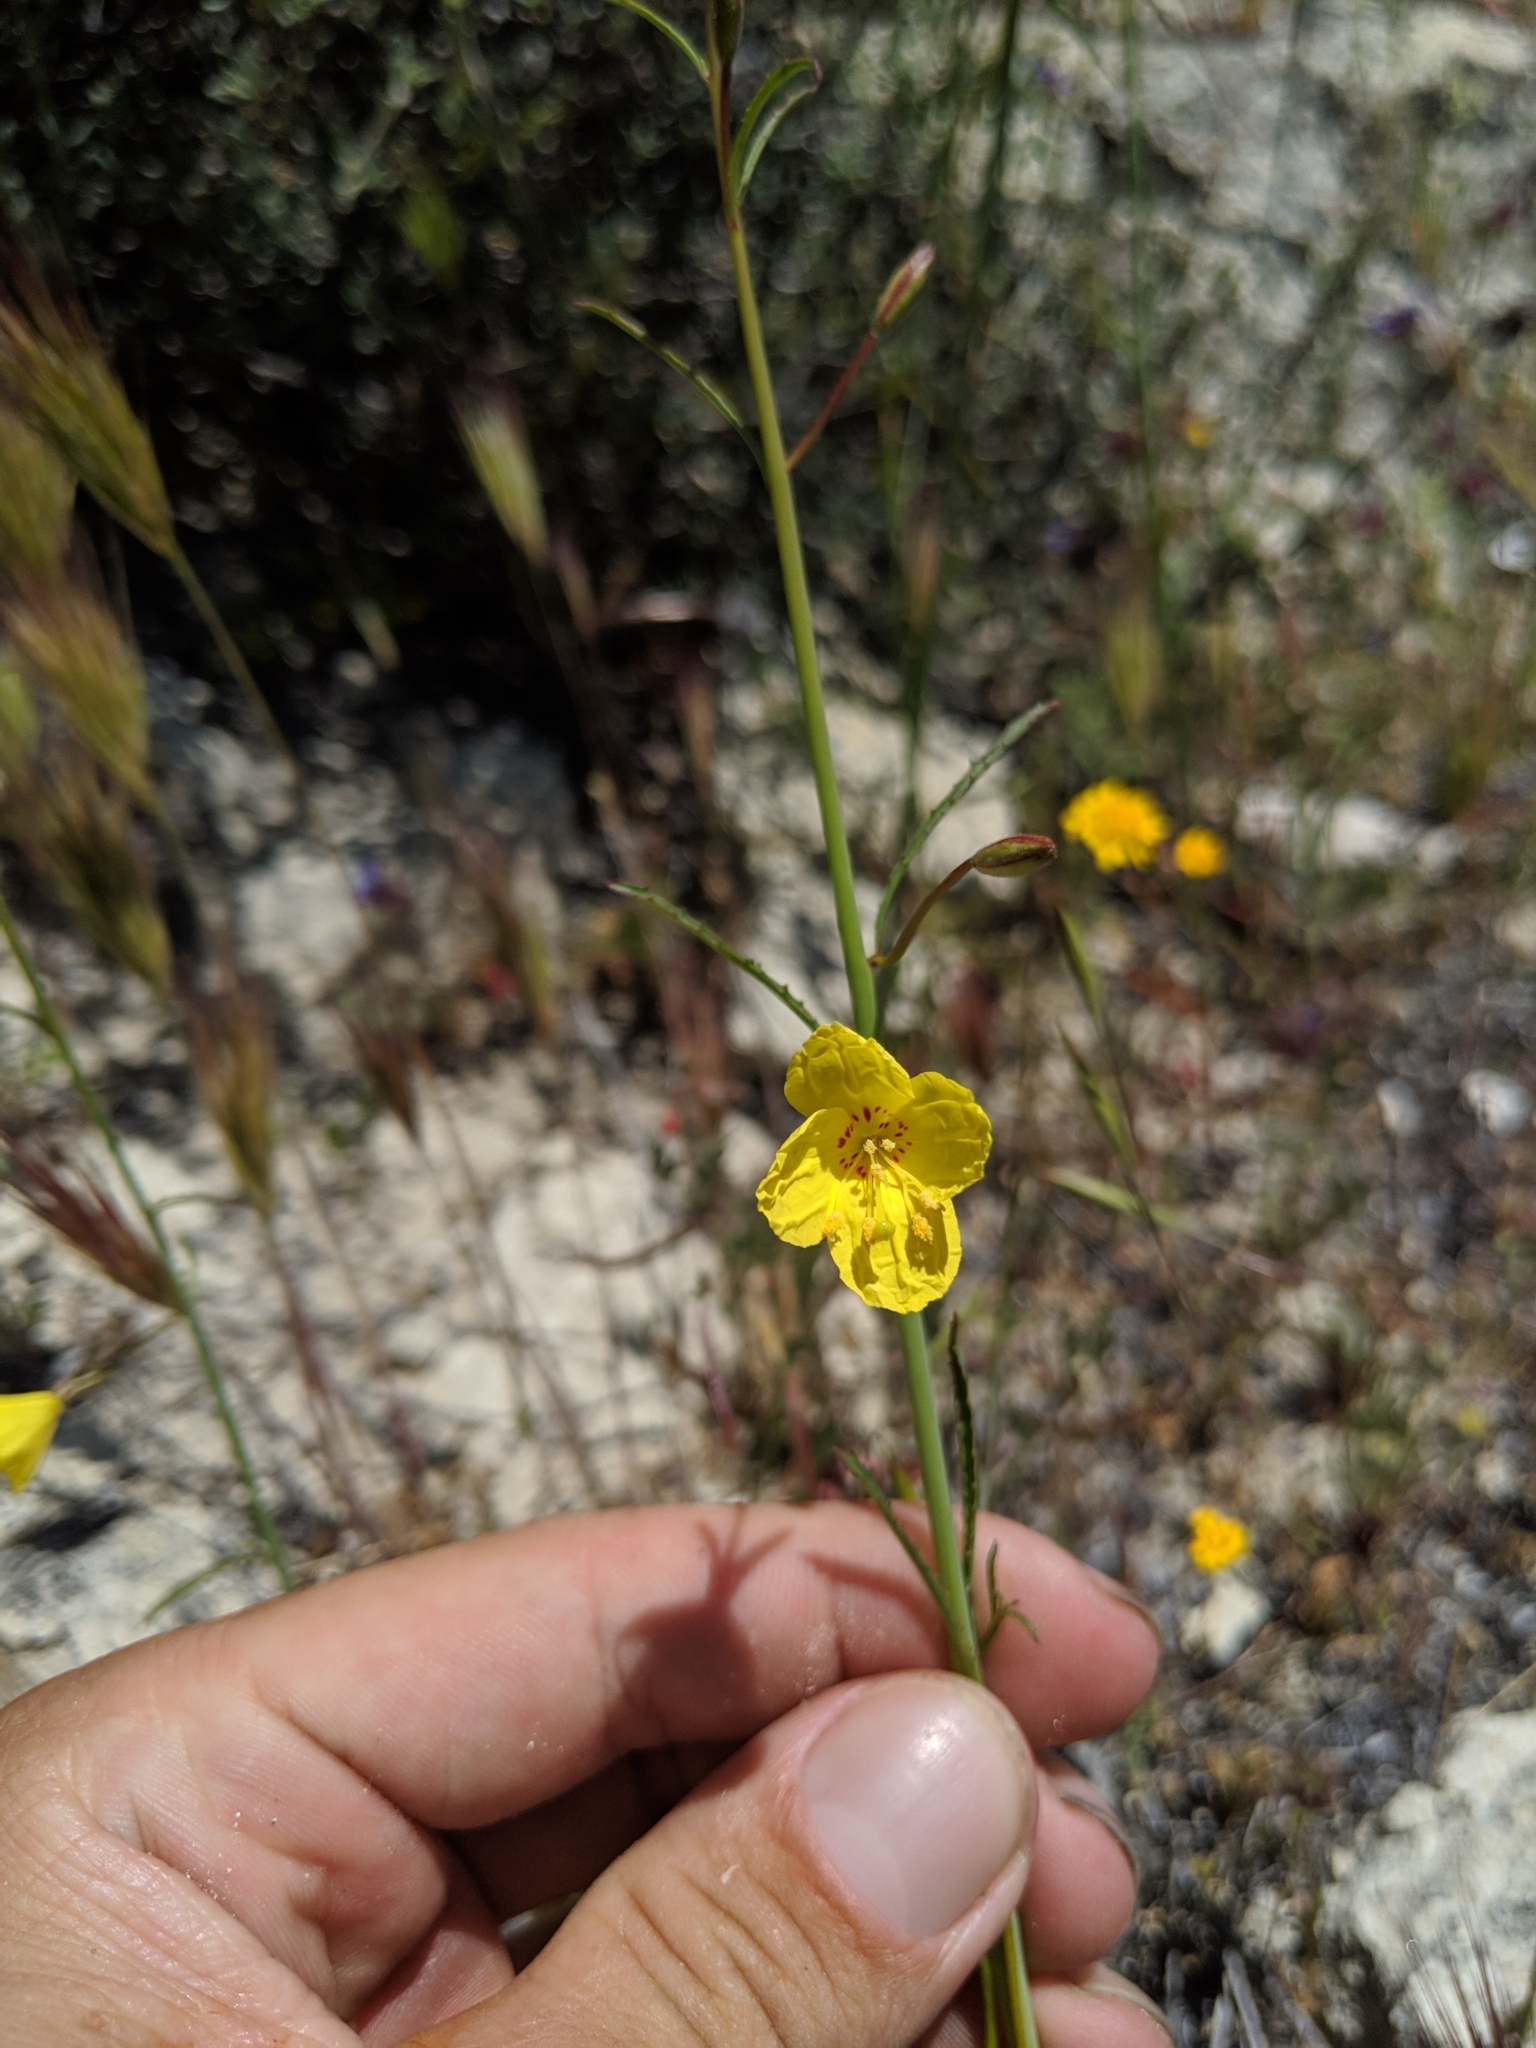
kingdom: Plantae
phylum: Tracheophyta
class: Magnoliopsida
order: Myrtales
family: Onagraceae
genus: Eulobus
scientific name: Eulobus californicus
